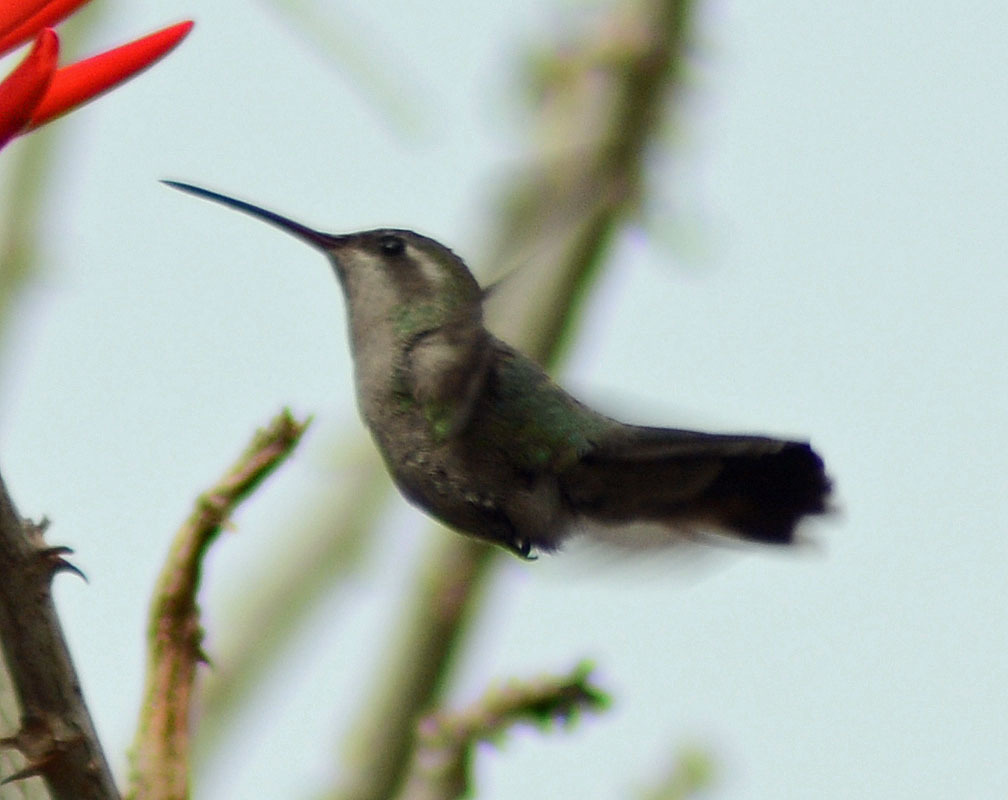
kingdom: Animalia
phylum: Chordata
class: Aves
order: Apodiformes
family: Trochilidae
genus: Cynanthus
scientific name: Cynanthus latirostris
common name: Broad-billed hummingbird
